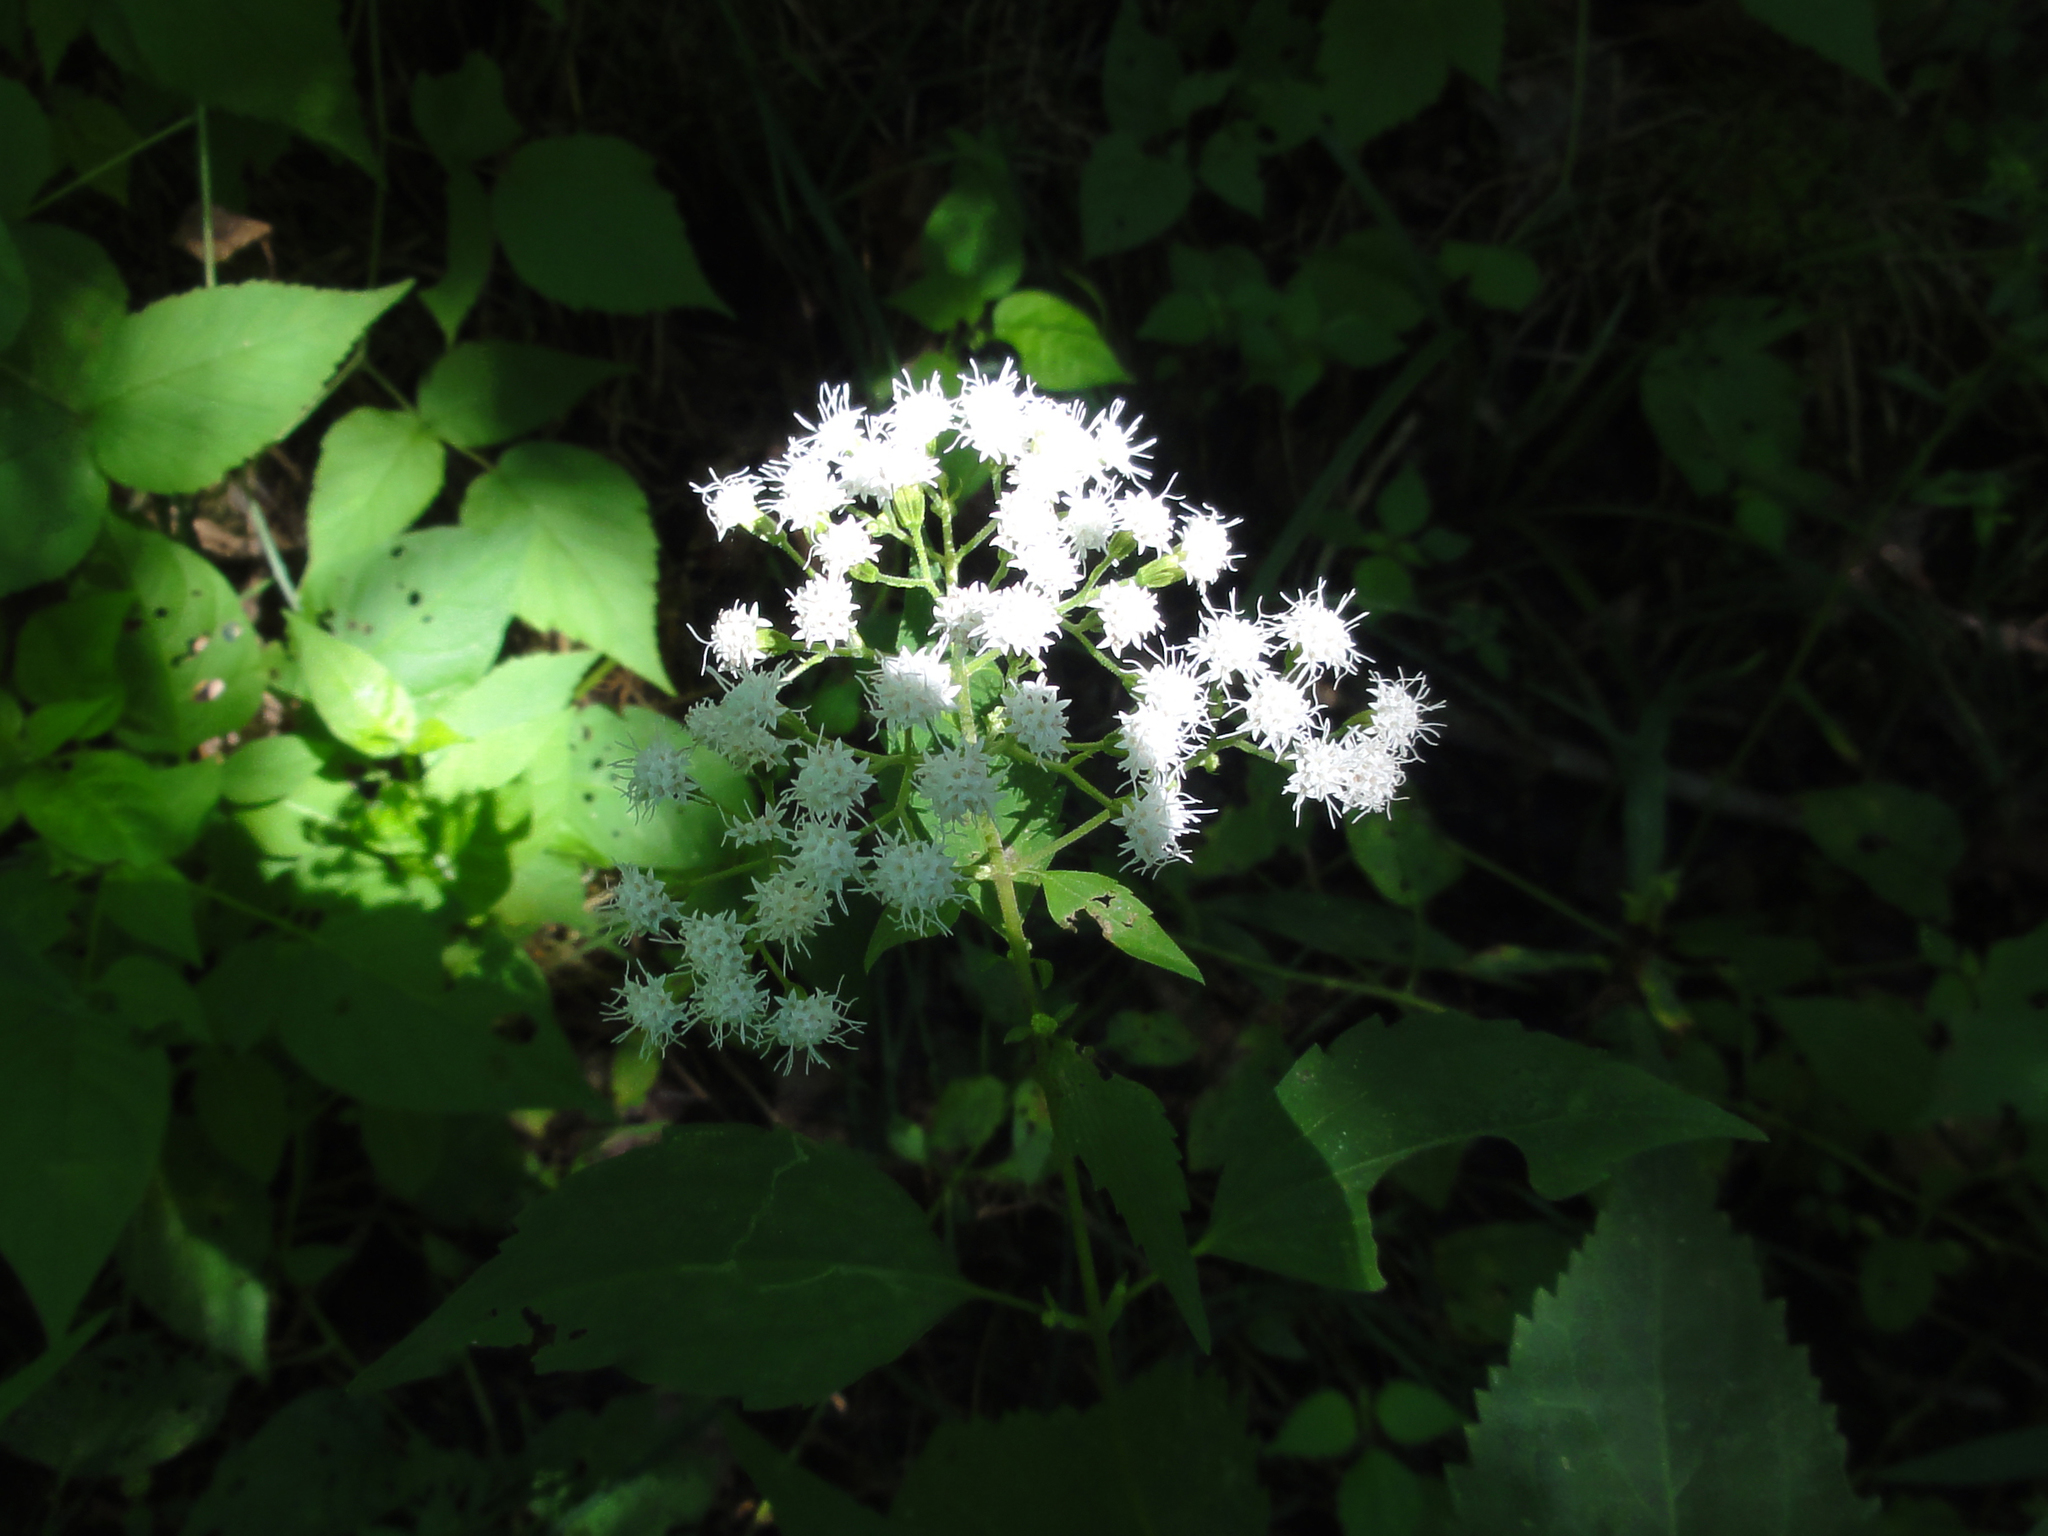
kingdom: Plantae
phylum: Tracheophyta
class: Magnoliopsida
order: Asterales
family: Asteraceae
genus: Ageratina
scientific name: Ageratina altissima
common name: White snakeroot
